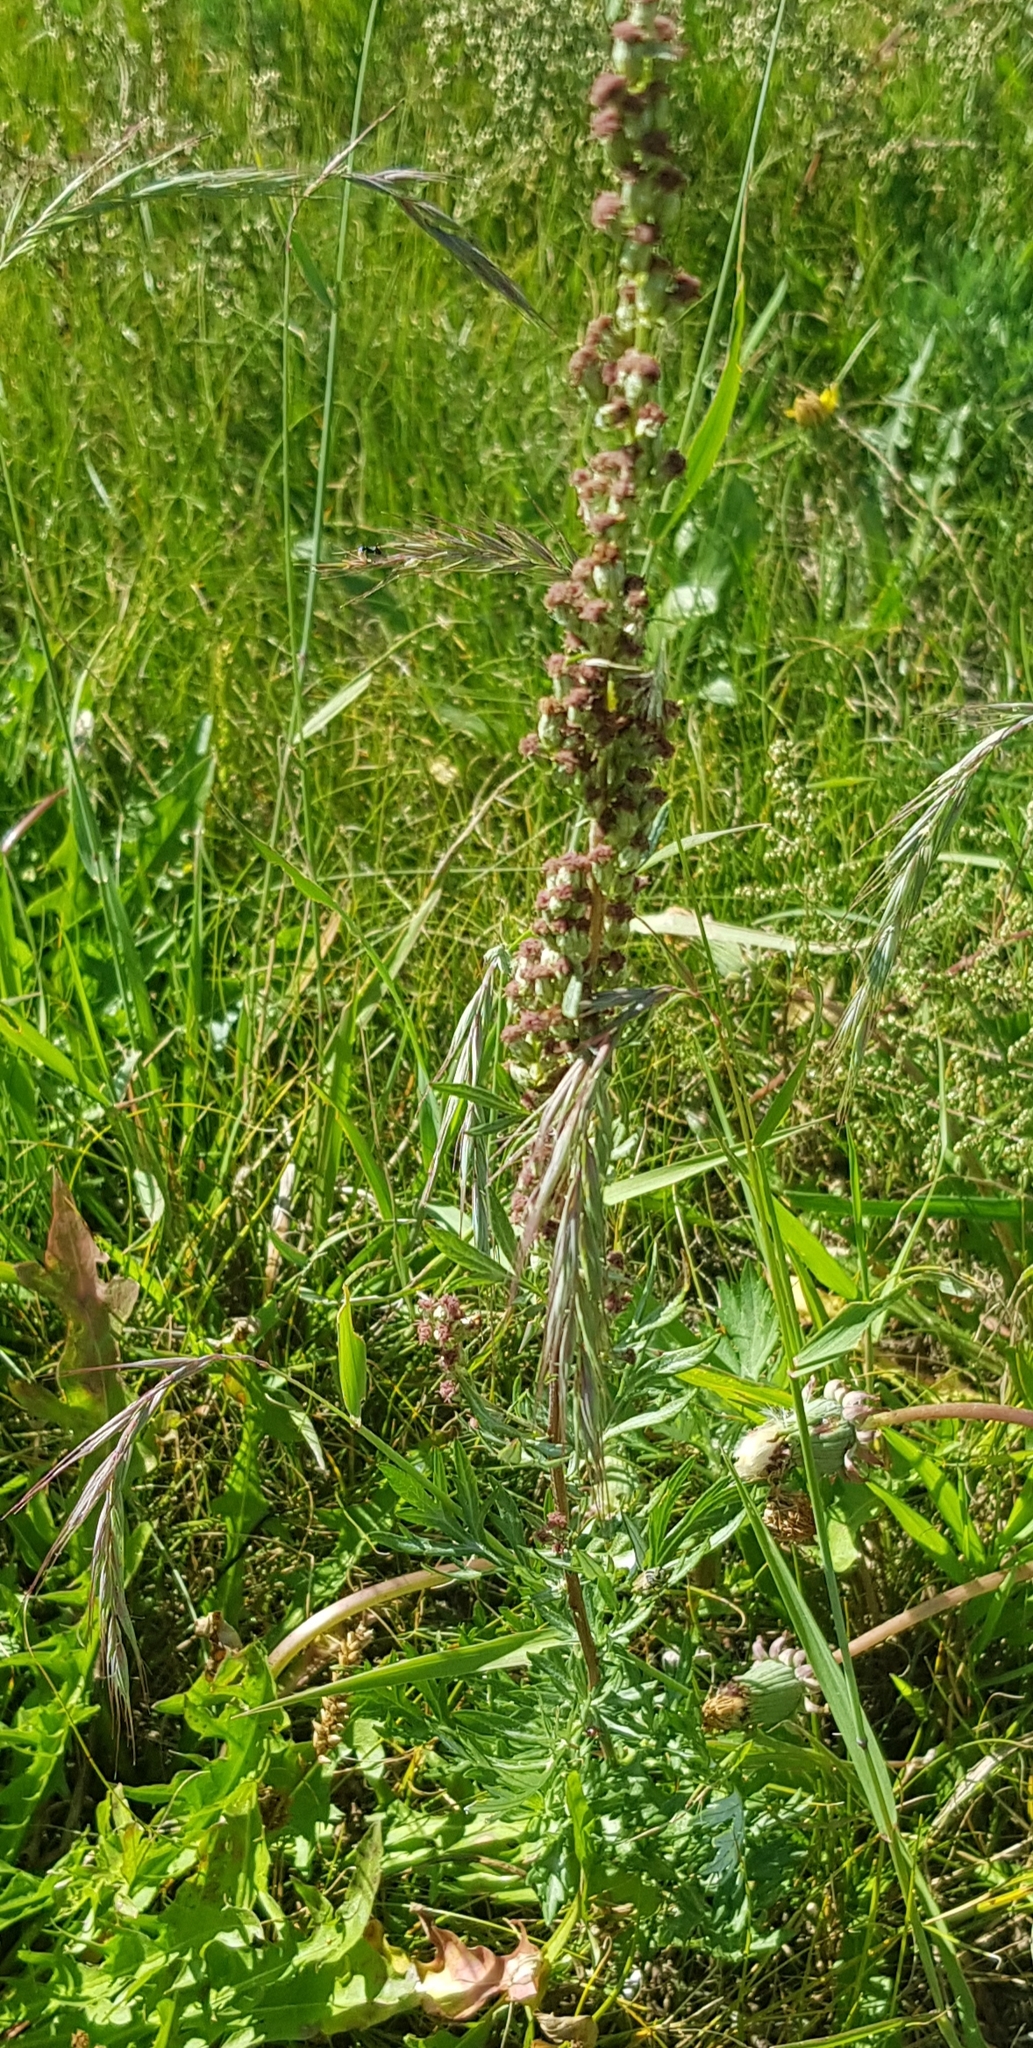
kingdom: Plantae
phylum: Tracheophyta
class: Magnoliopsida
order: Asterales
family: Asteraceae
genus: Artemisia
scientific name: Artemisia vulgaris
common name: Mugwort
